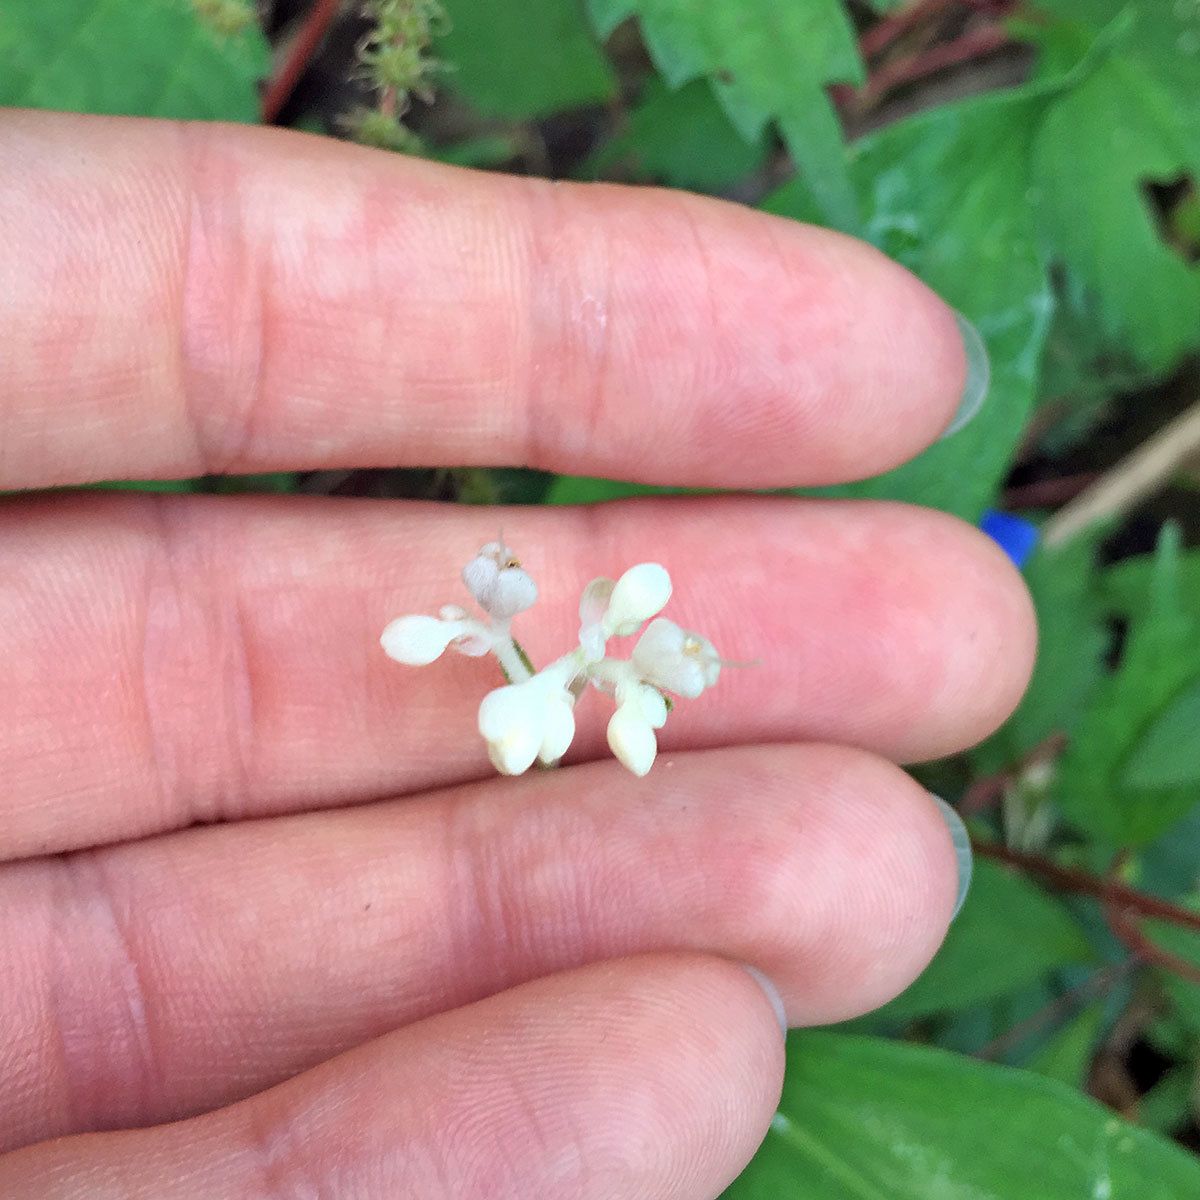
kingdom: Plantae
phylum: Tracheophyta
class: Liliopsida
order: Commelinales
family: Commelinaceae
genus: Pollia
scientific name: Pollia japonica
